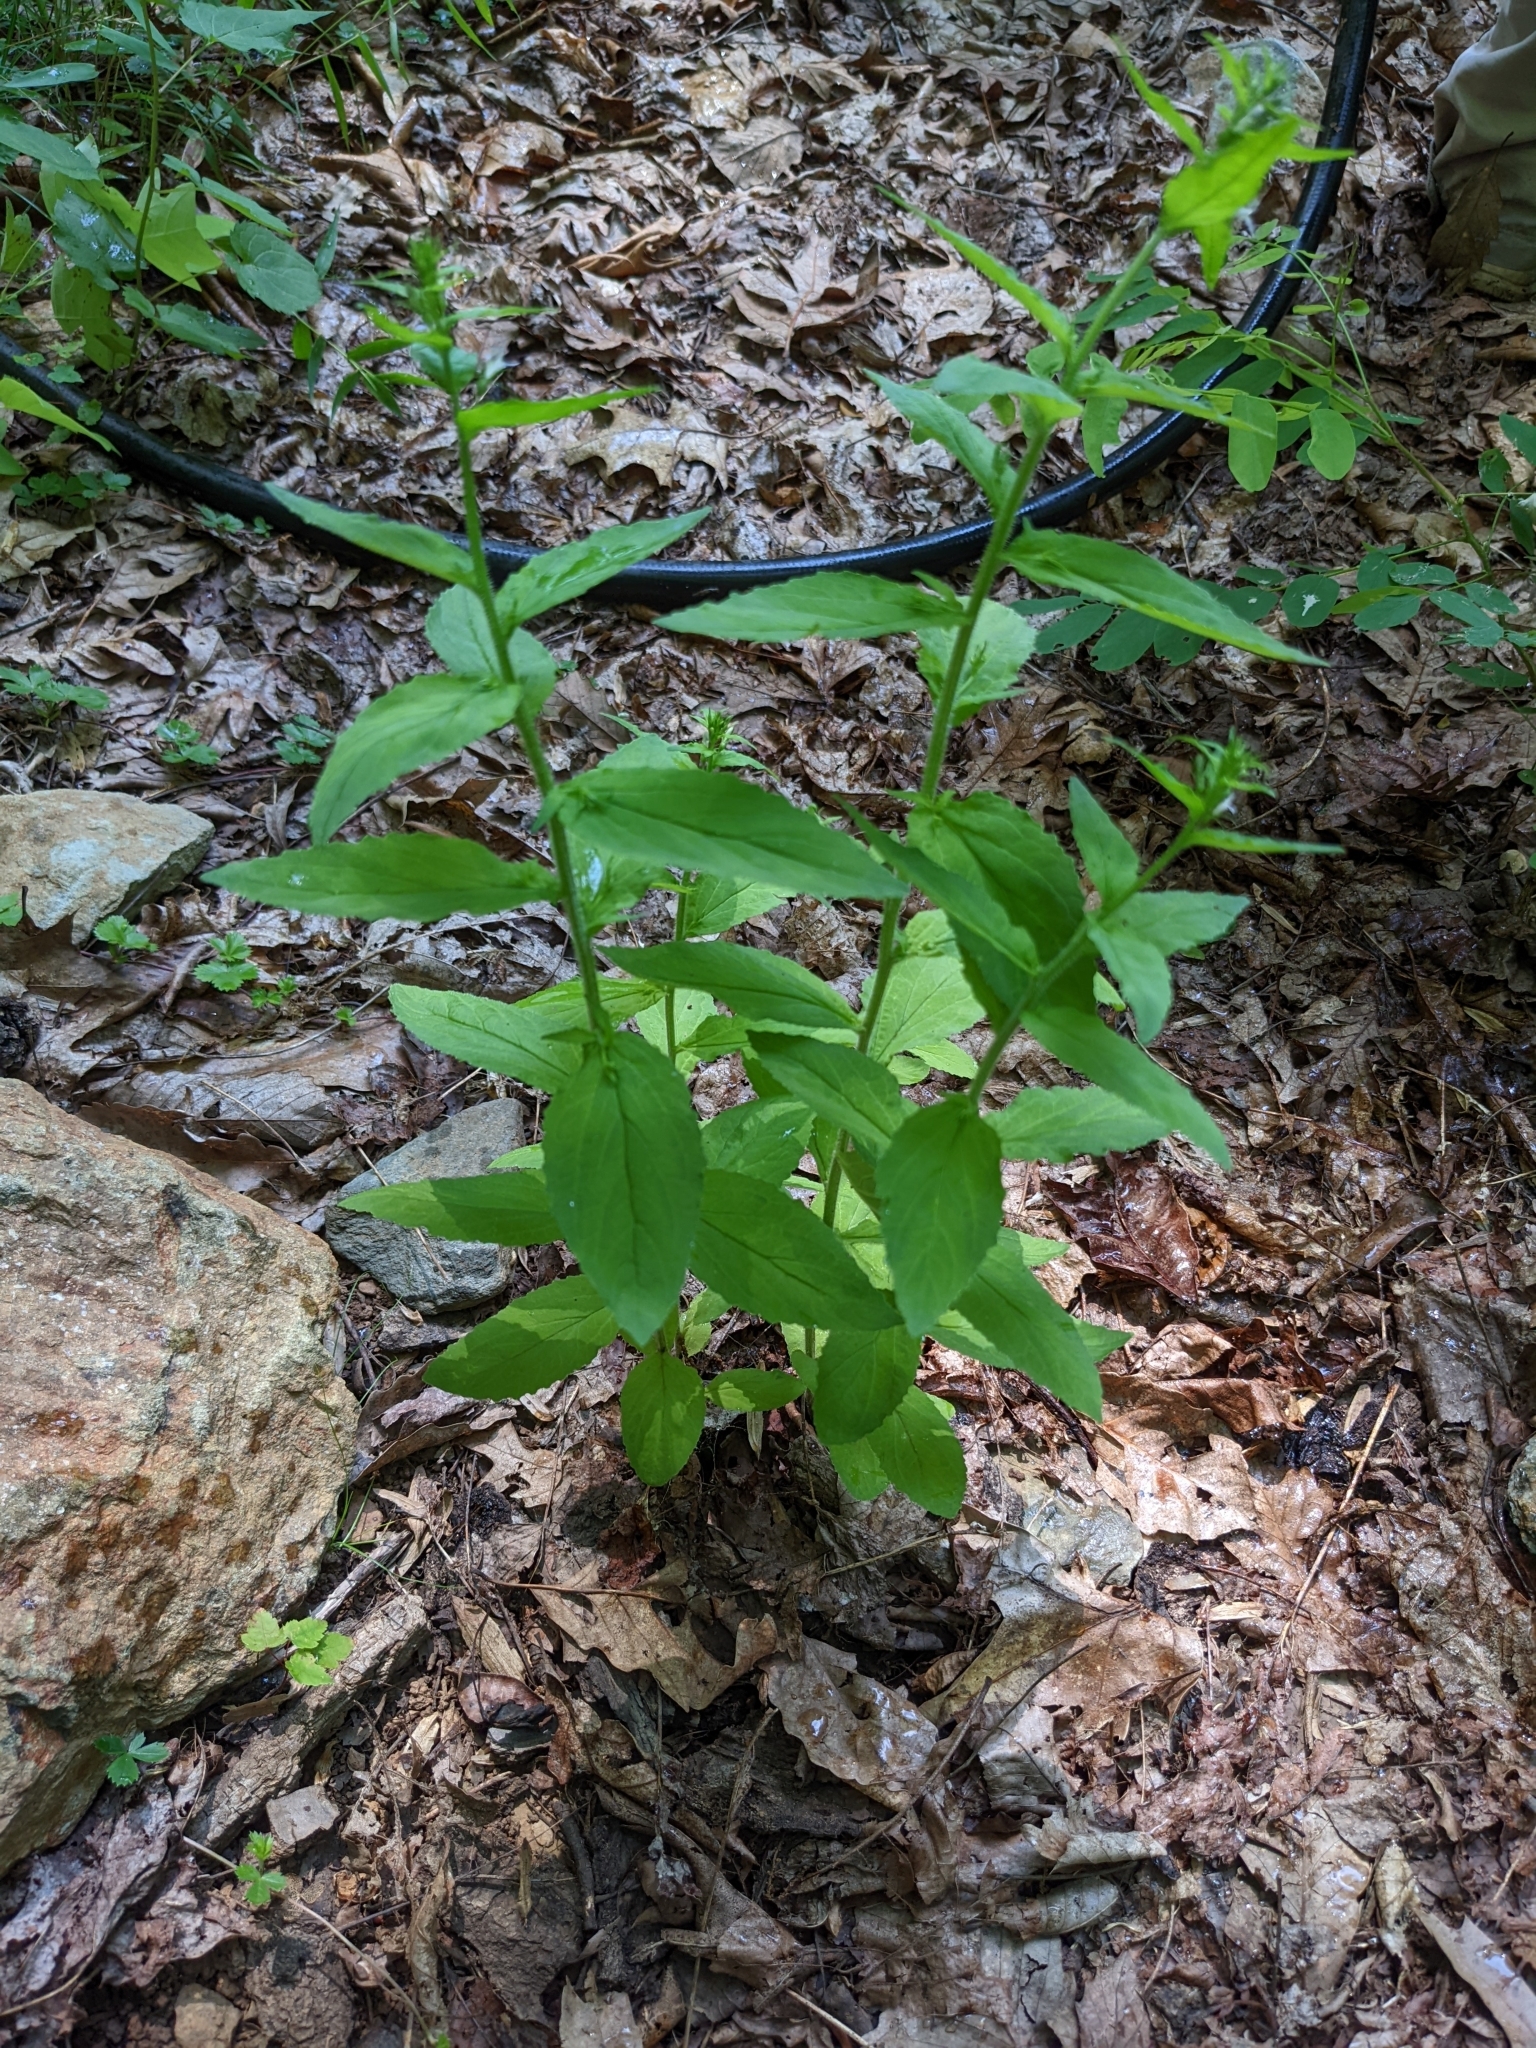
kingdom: Plantae
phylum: Tracheophyta
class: Magnoliopsida
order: Asterales
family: Campanulaceae
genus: Lobelia
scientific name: Lobelia inflata
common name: Indian tobacco
